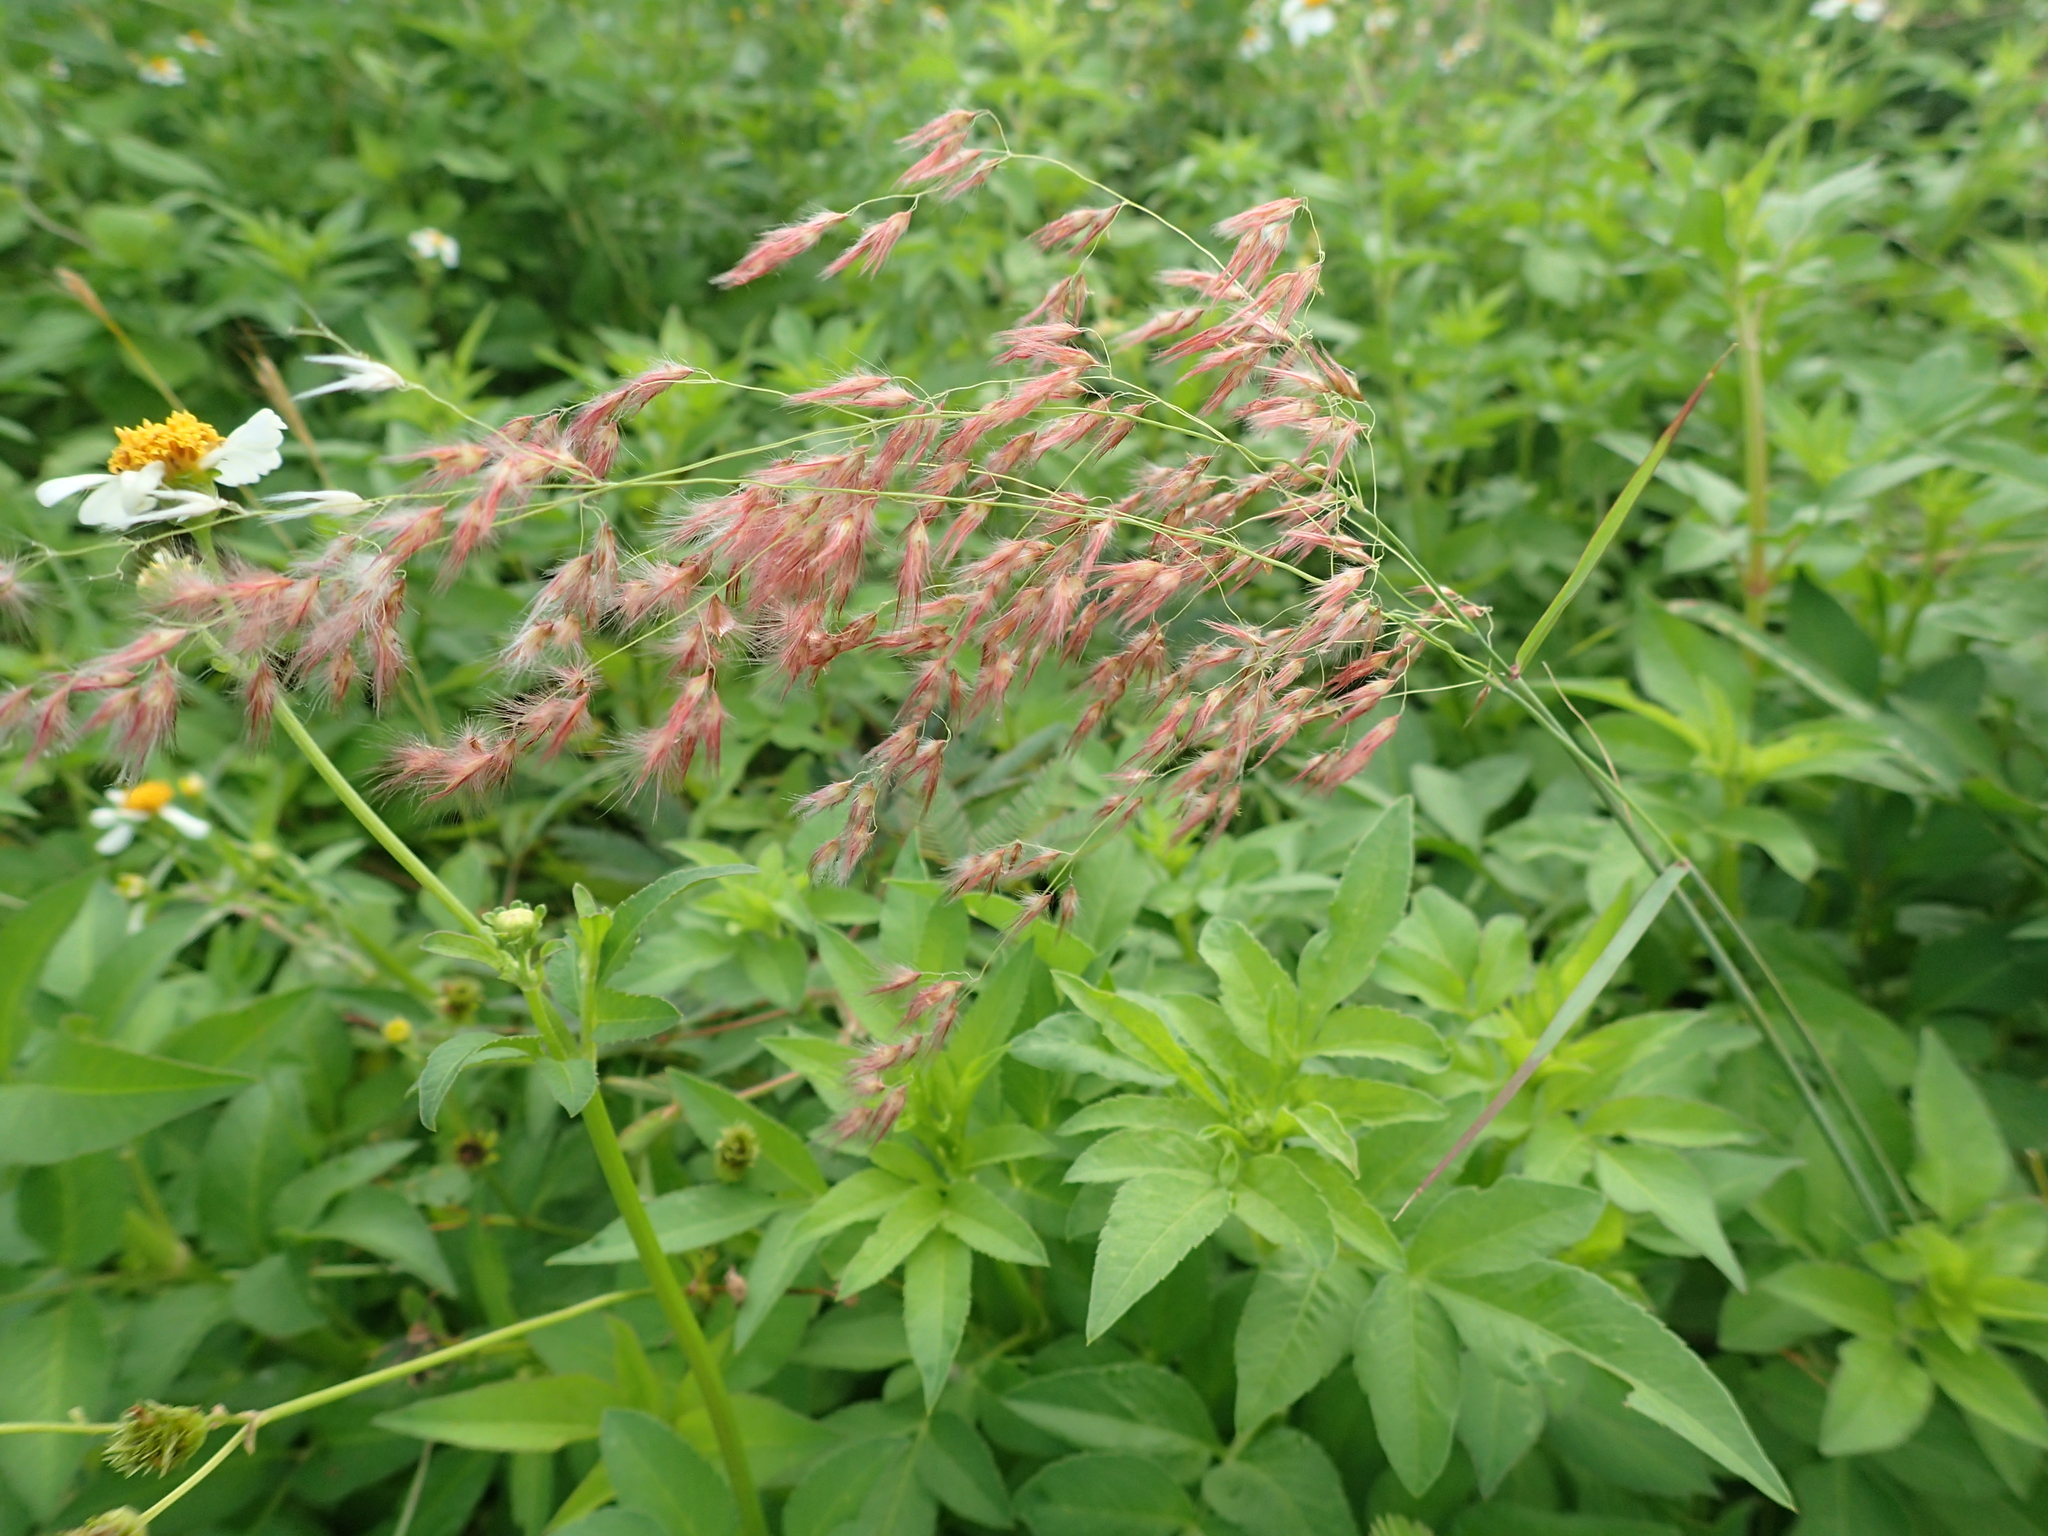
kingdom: Plantae
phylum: Tracheophyta
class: Liliopsida
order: Poales
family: Poaceae
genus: Melinis
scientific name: Melinis repens
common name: Rose natal grass
